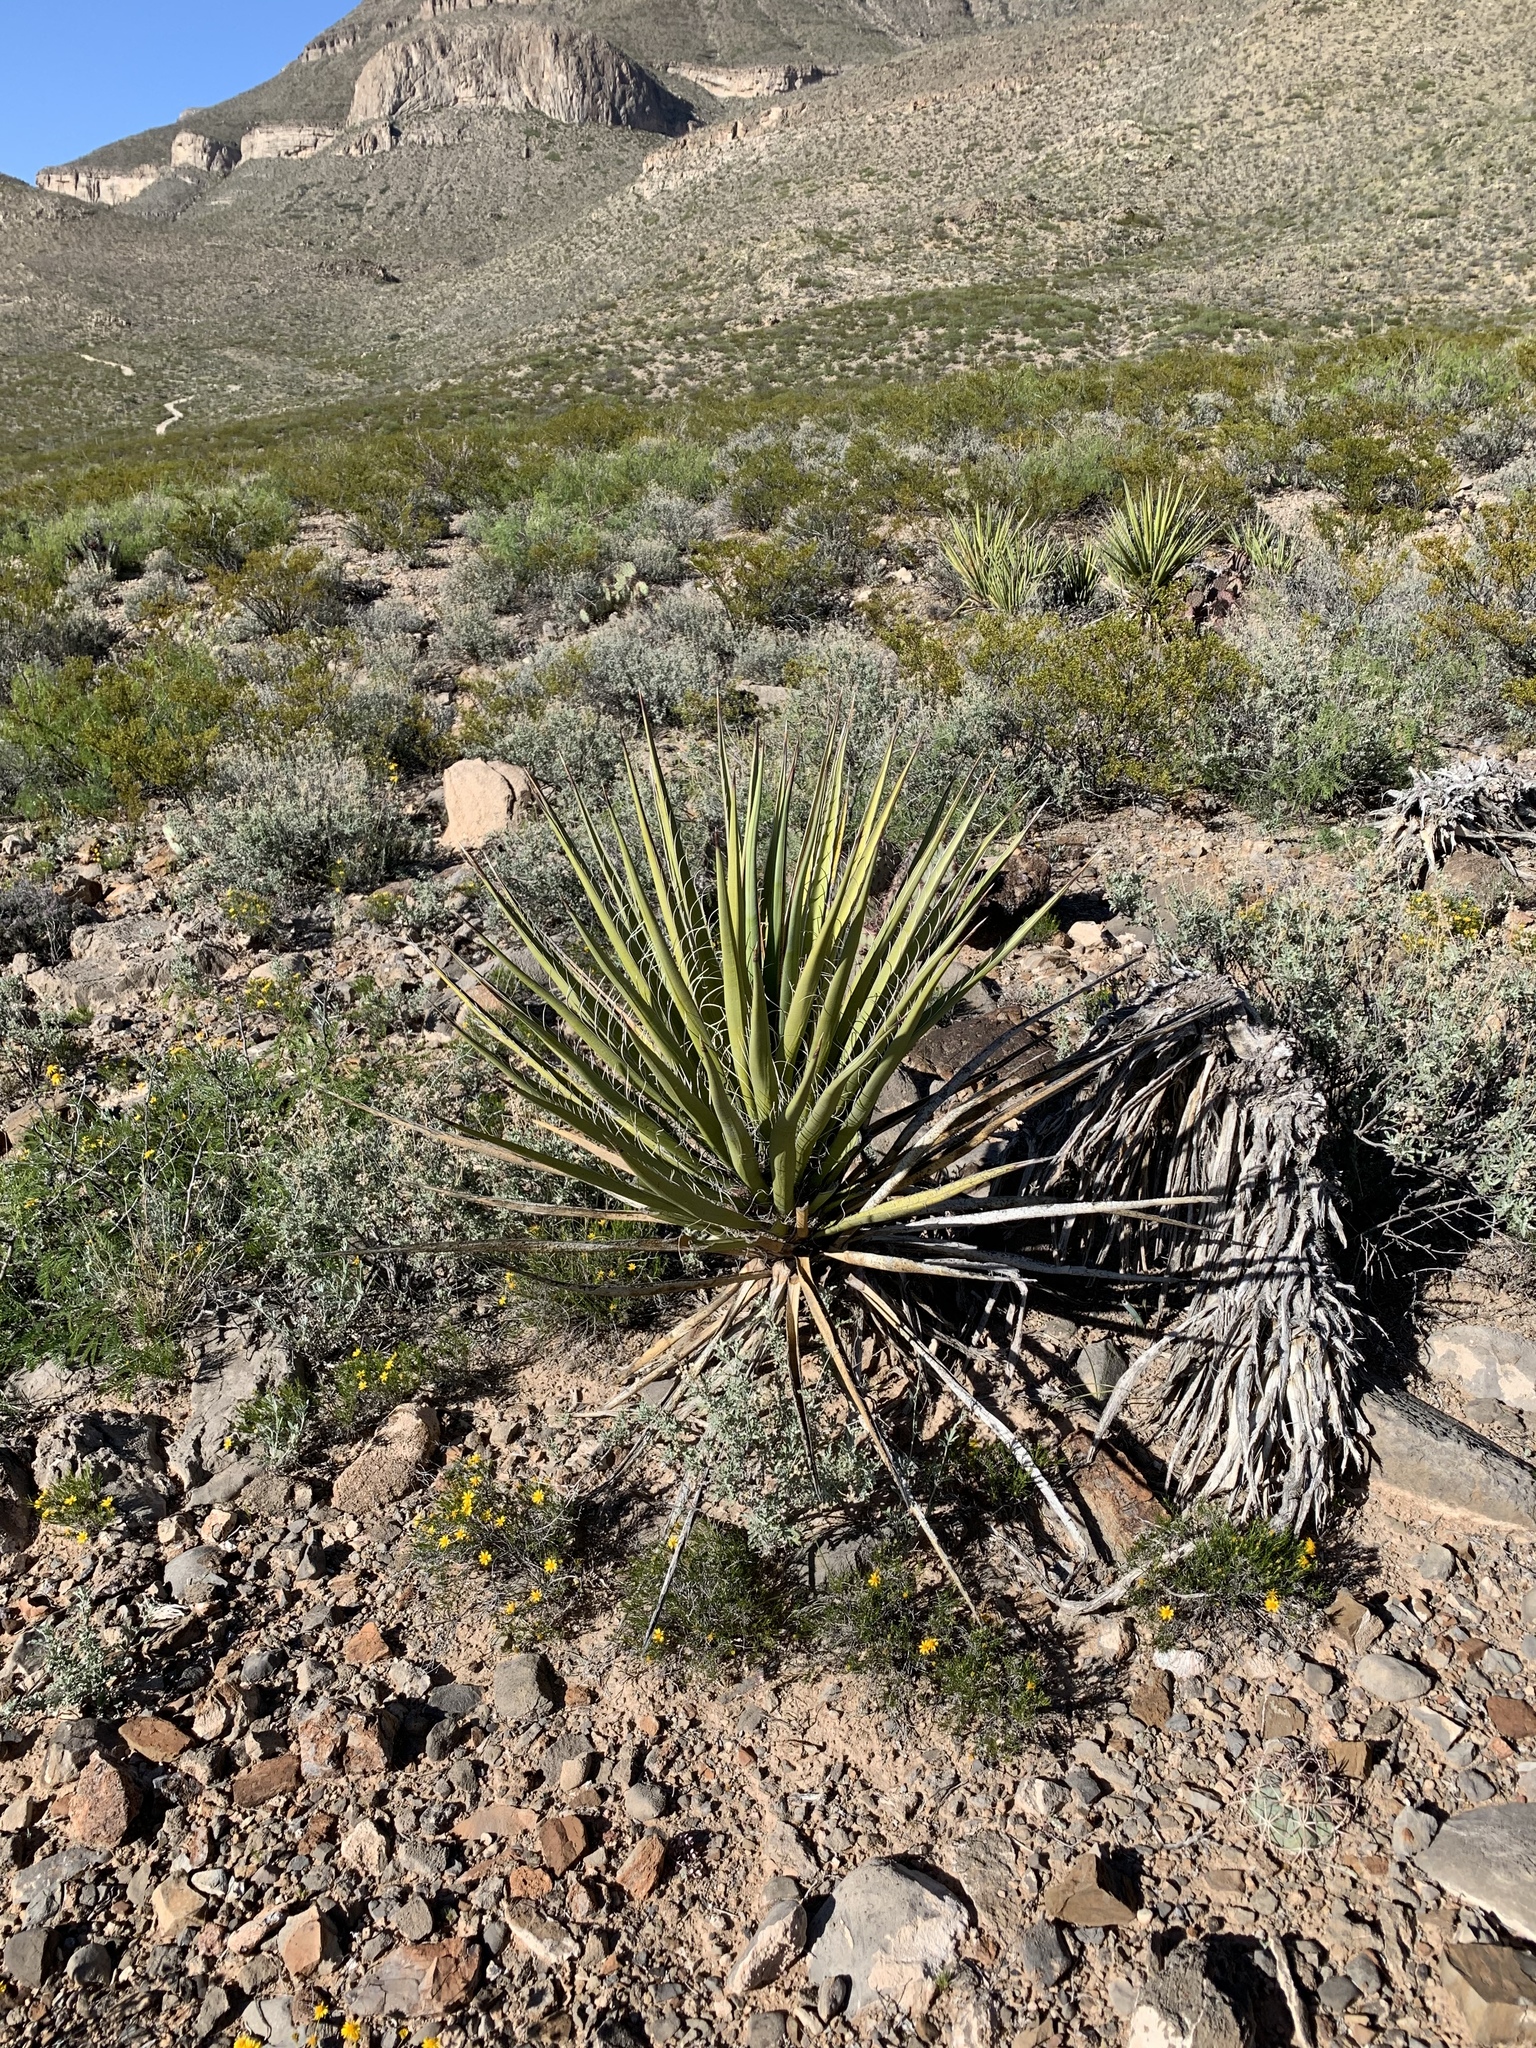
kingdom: Plantae
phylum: Tracheophyta
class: Liliopsida
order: Asparagales
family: Asparagaceae
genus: Yucca
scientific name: Yucca treculiana
